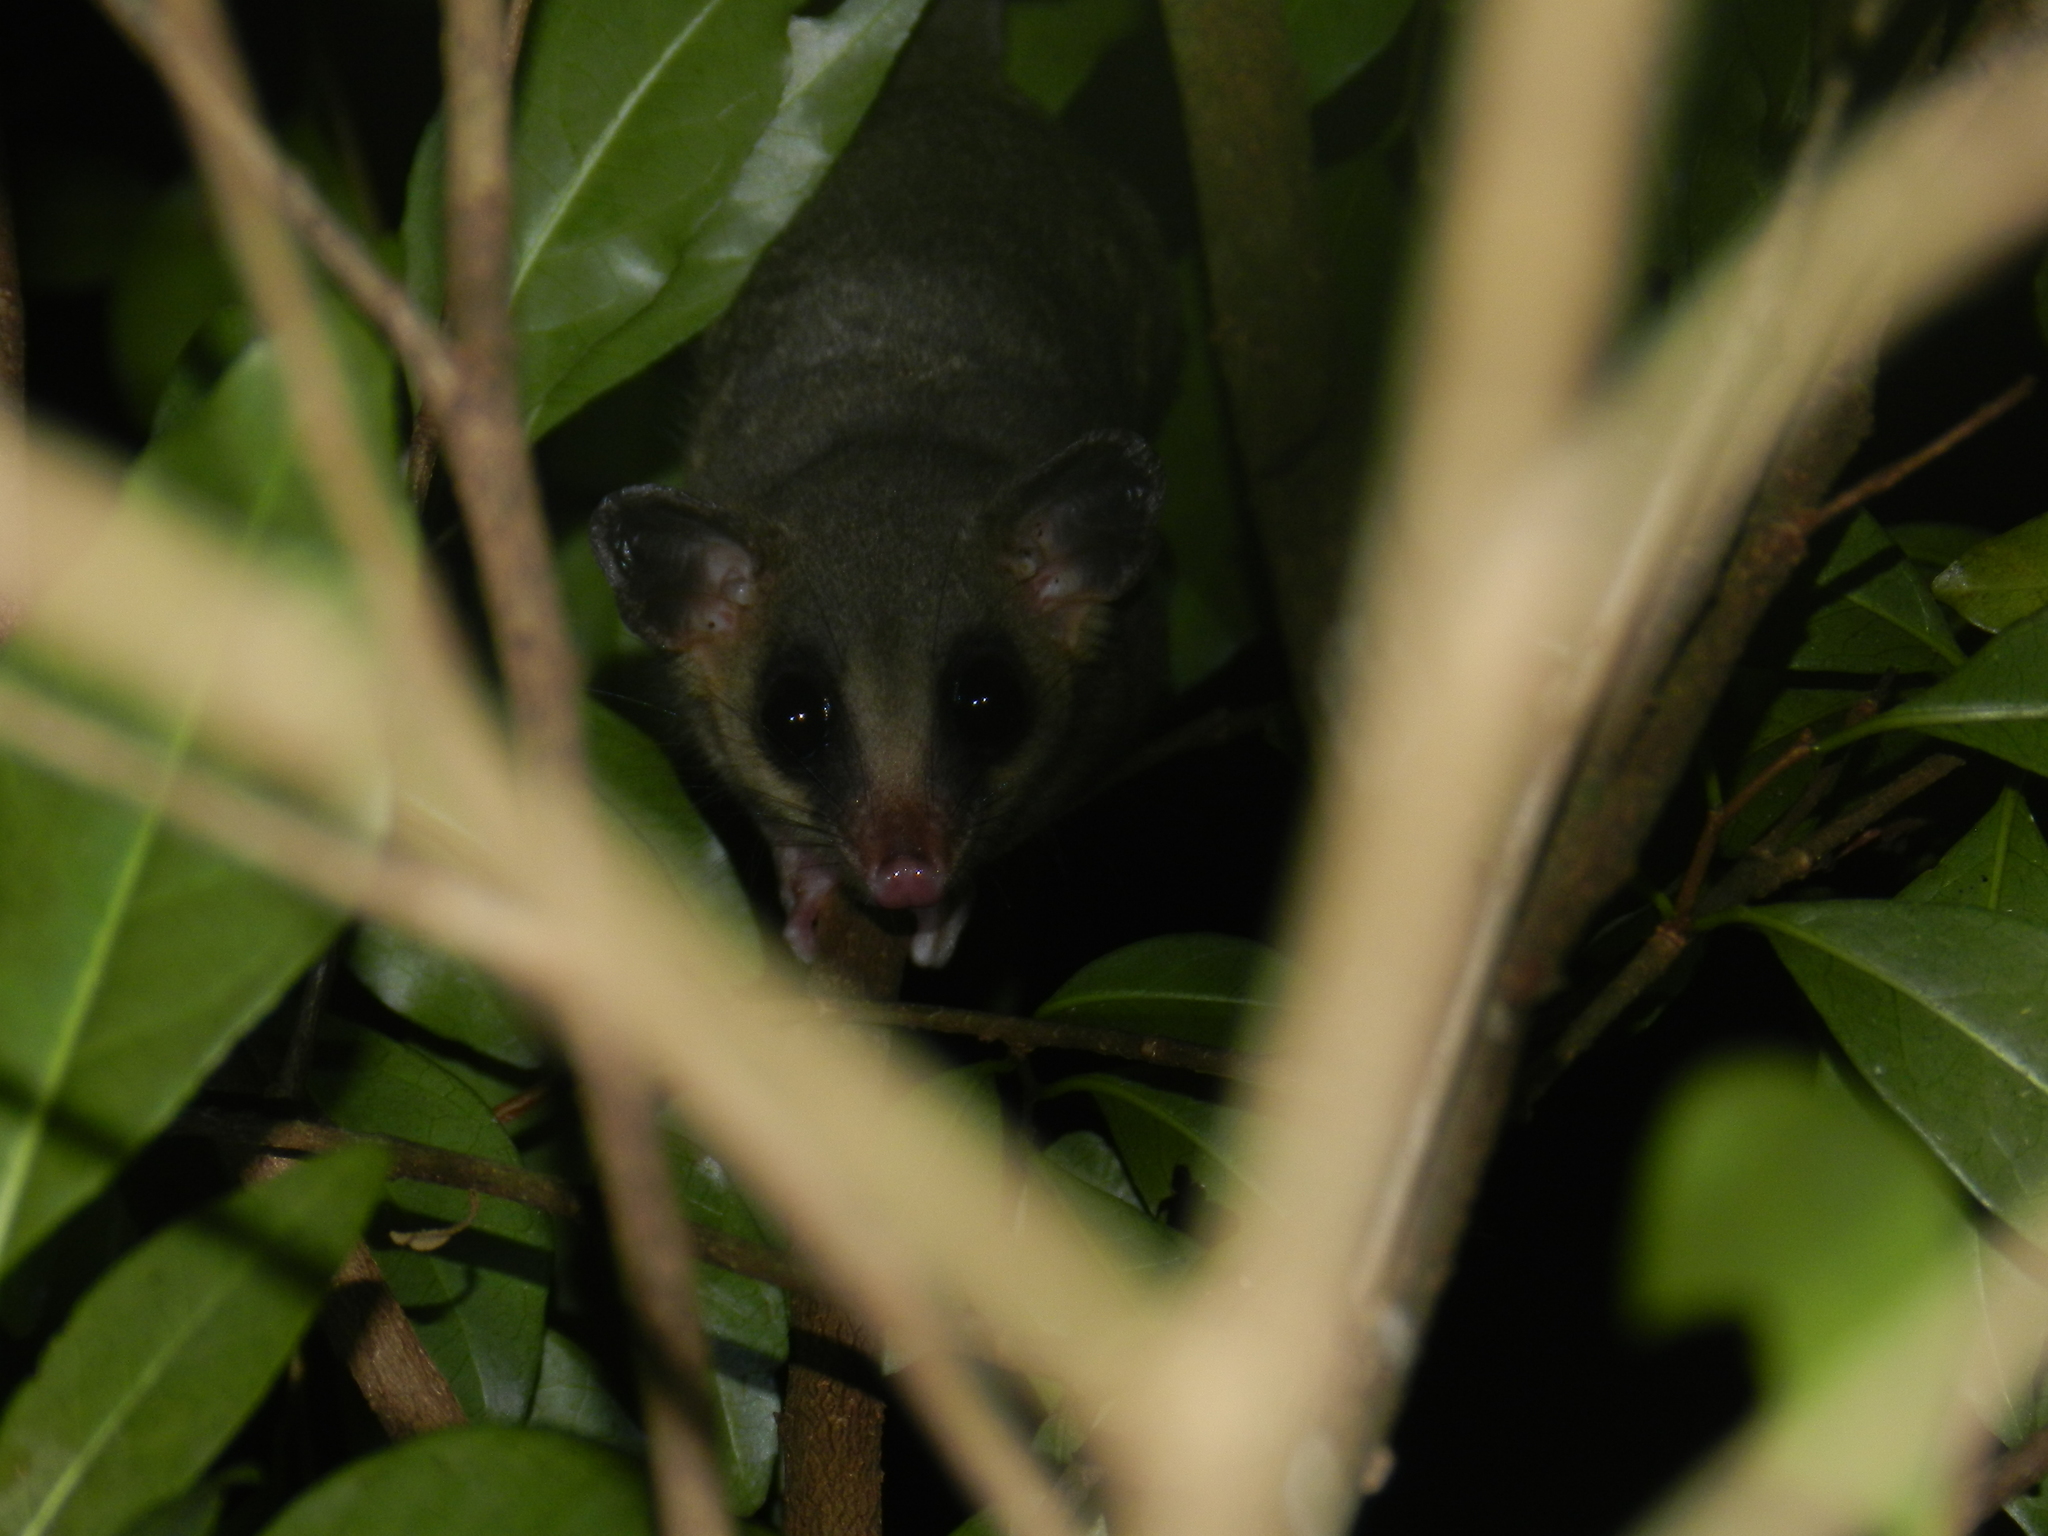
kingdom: Animalia
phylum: Chordata
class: Mammalia
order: Didelphimorphia
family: Didelphidae
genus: Micoureus
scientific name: Micoureus paraguayanus
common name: Tates woolly mouse opossum
